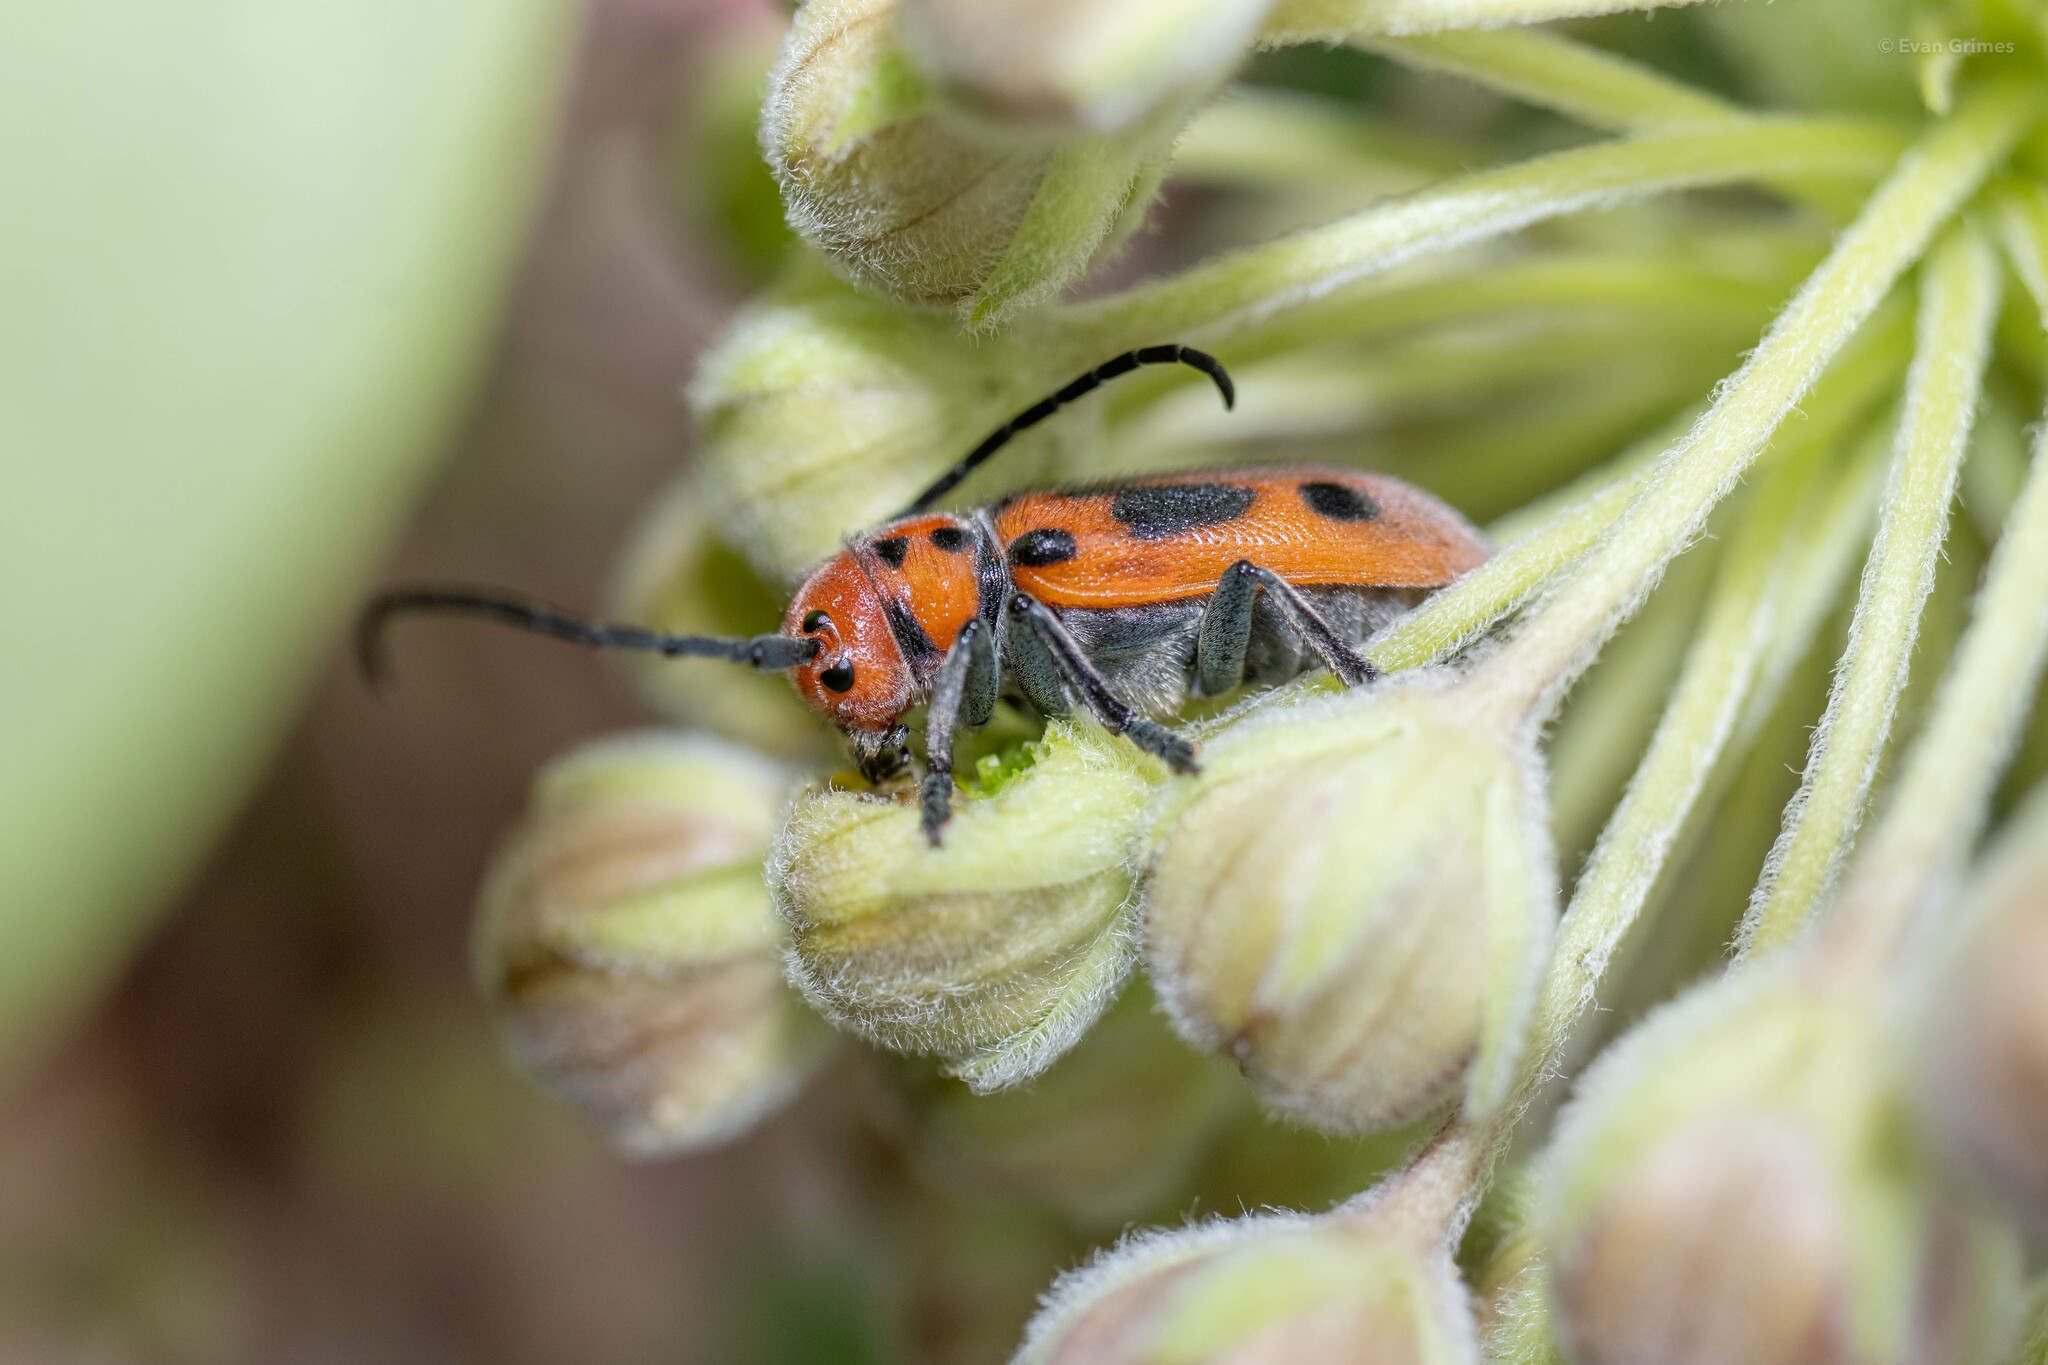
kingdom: Animalia
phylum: Arthropoda
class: Insecta
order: Coleoptera
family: Cerambycidae
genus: Tetraopes
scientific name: Tetraopes tetrophthalmus
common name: Red milkweed beetle
